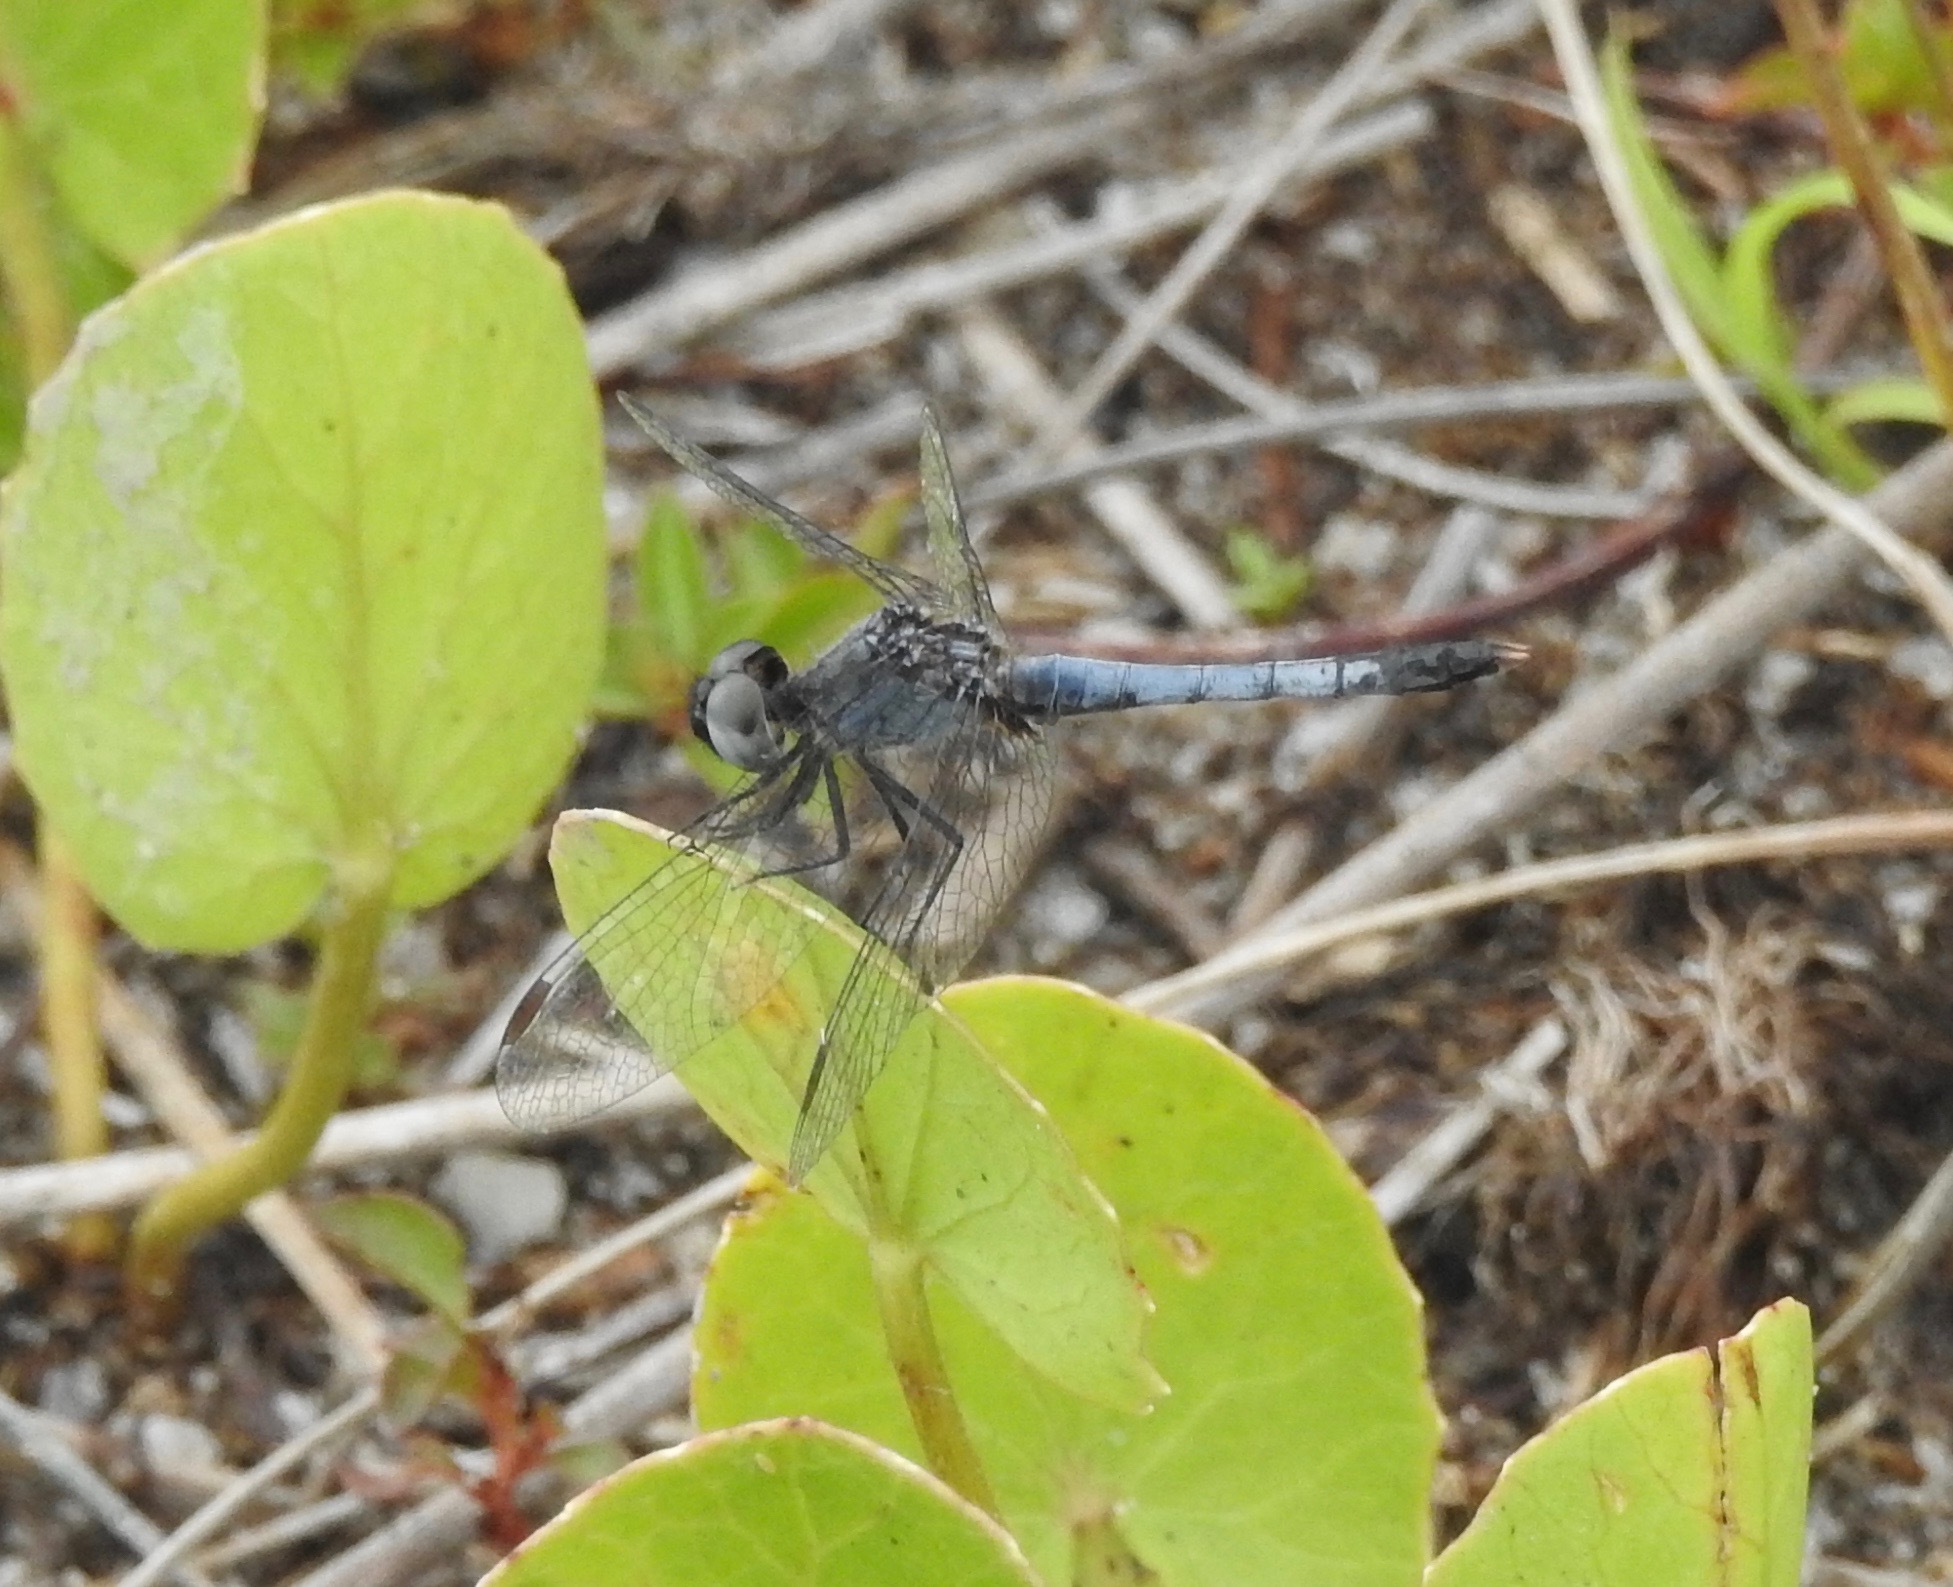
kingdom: Animalia
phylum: Arthropoda
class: Insecta
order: Odonata
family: Libellulidae
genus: Erythrodiplax
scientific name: Erythrodiplax minuscula
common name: Little blue dragonlet
